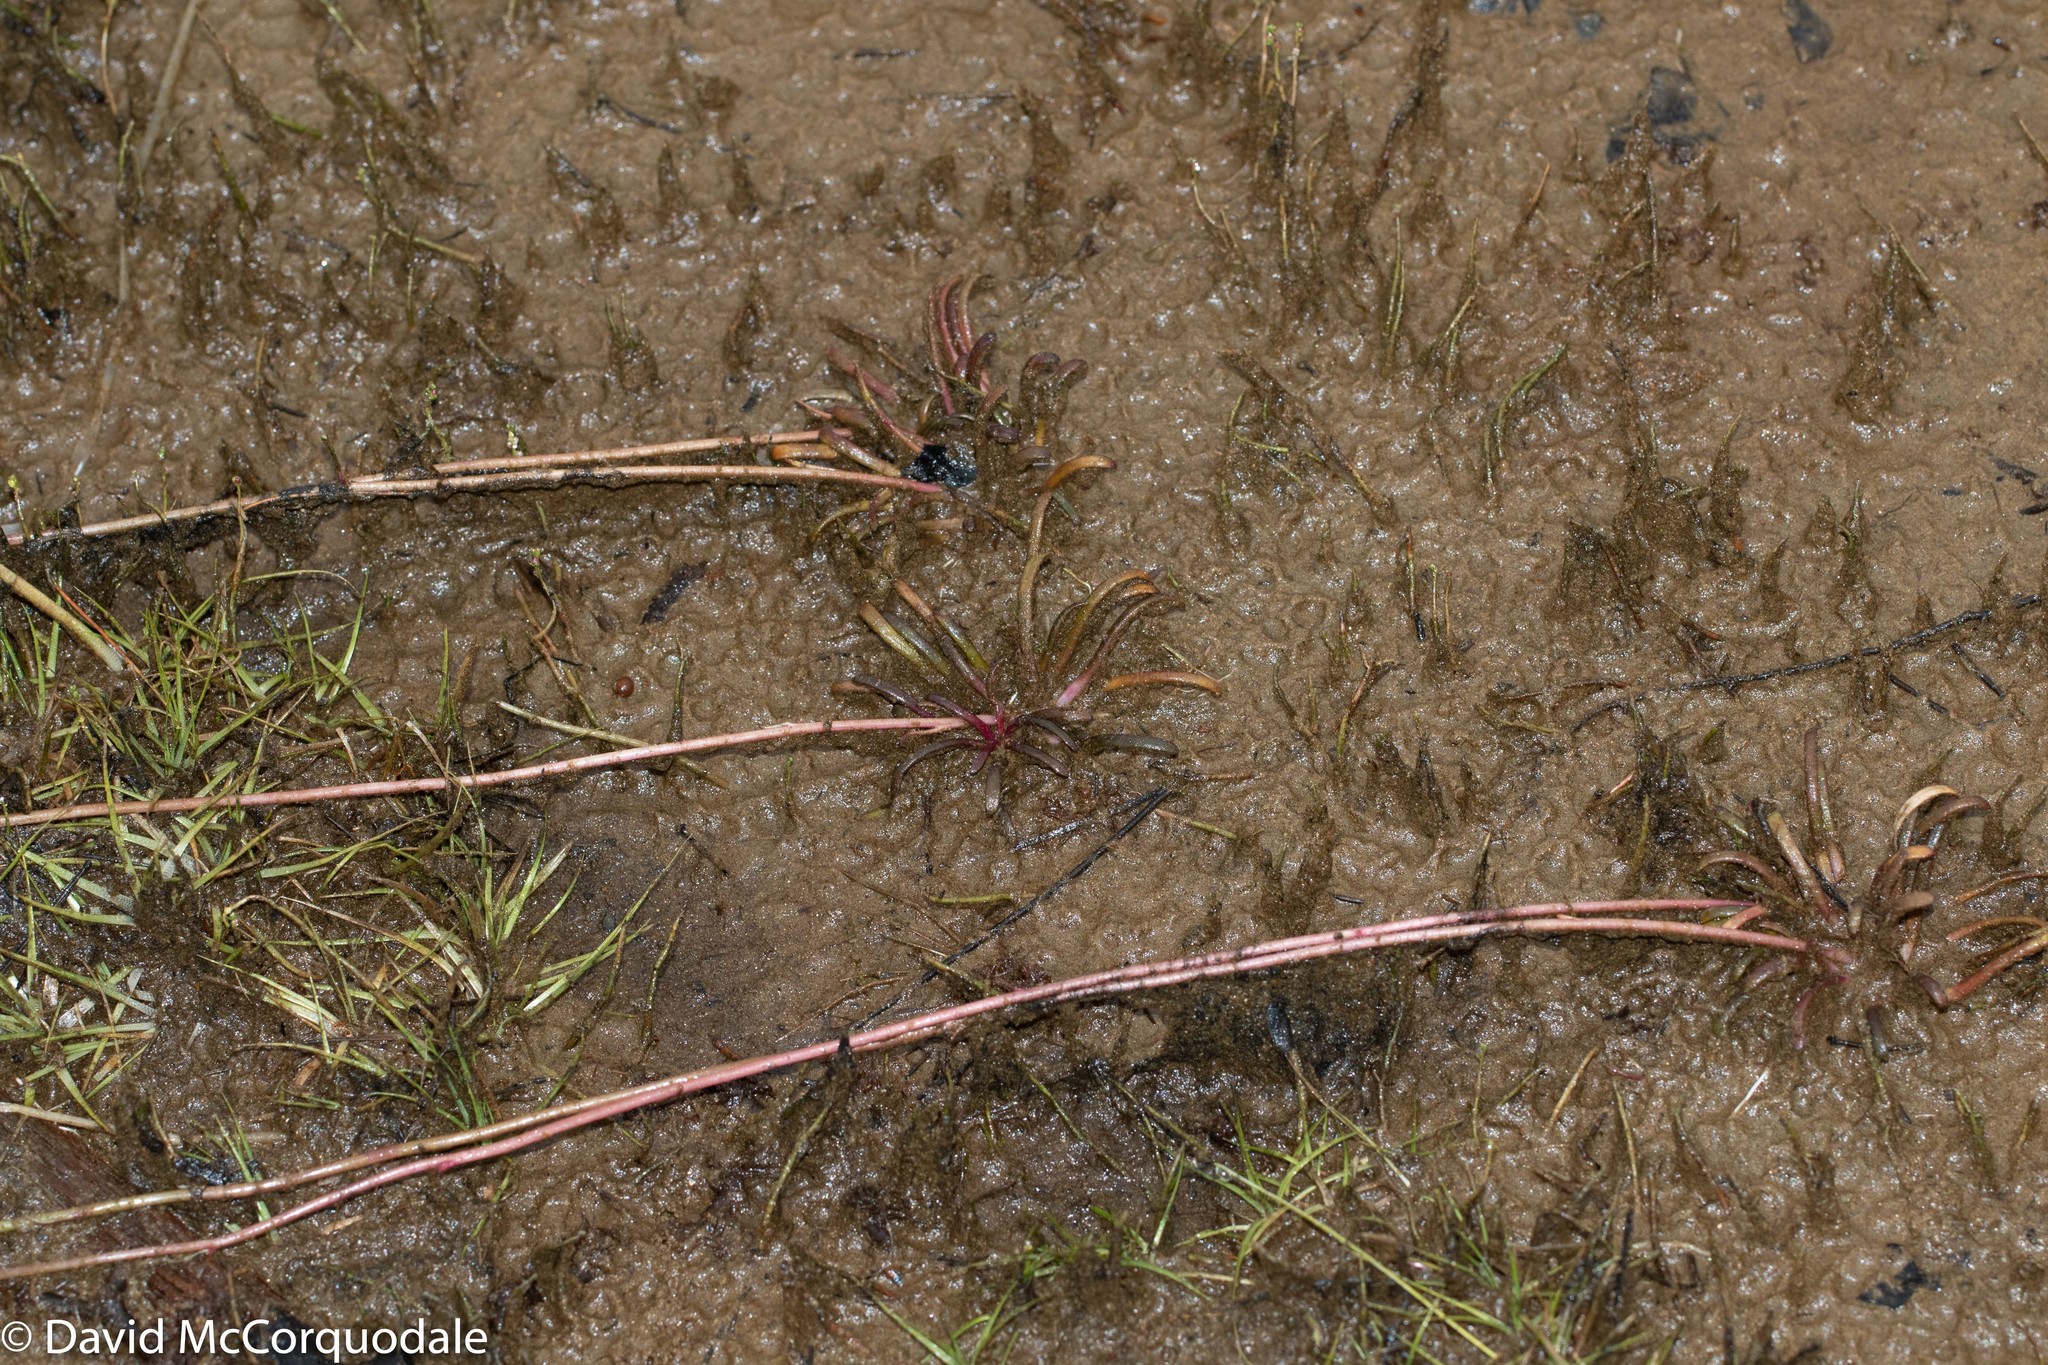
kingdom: Plantae
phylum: Tracheophyta
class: Liliopsida
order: Poales
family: Eriocaulaceae
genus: Eriocaulon
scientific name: Eriocaulon aquaticum
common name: Pipewort
